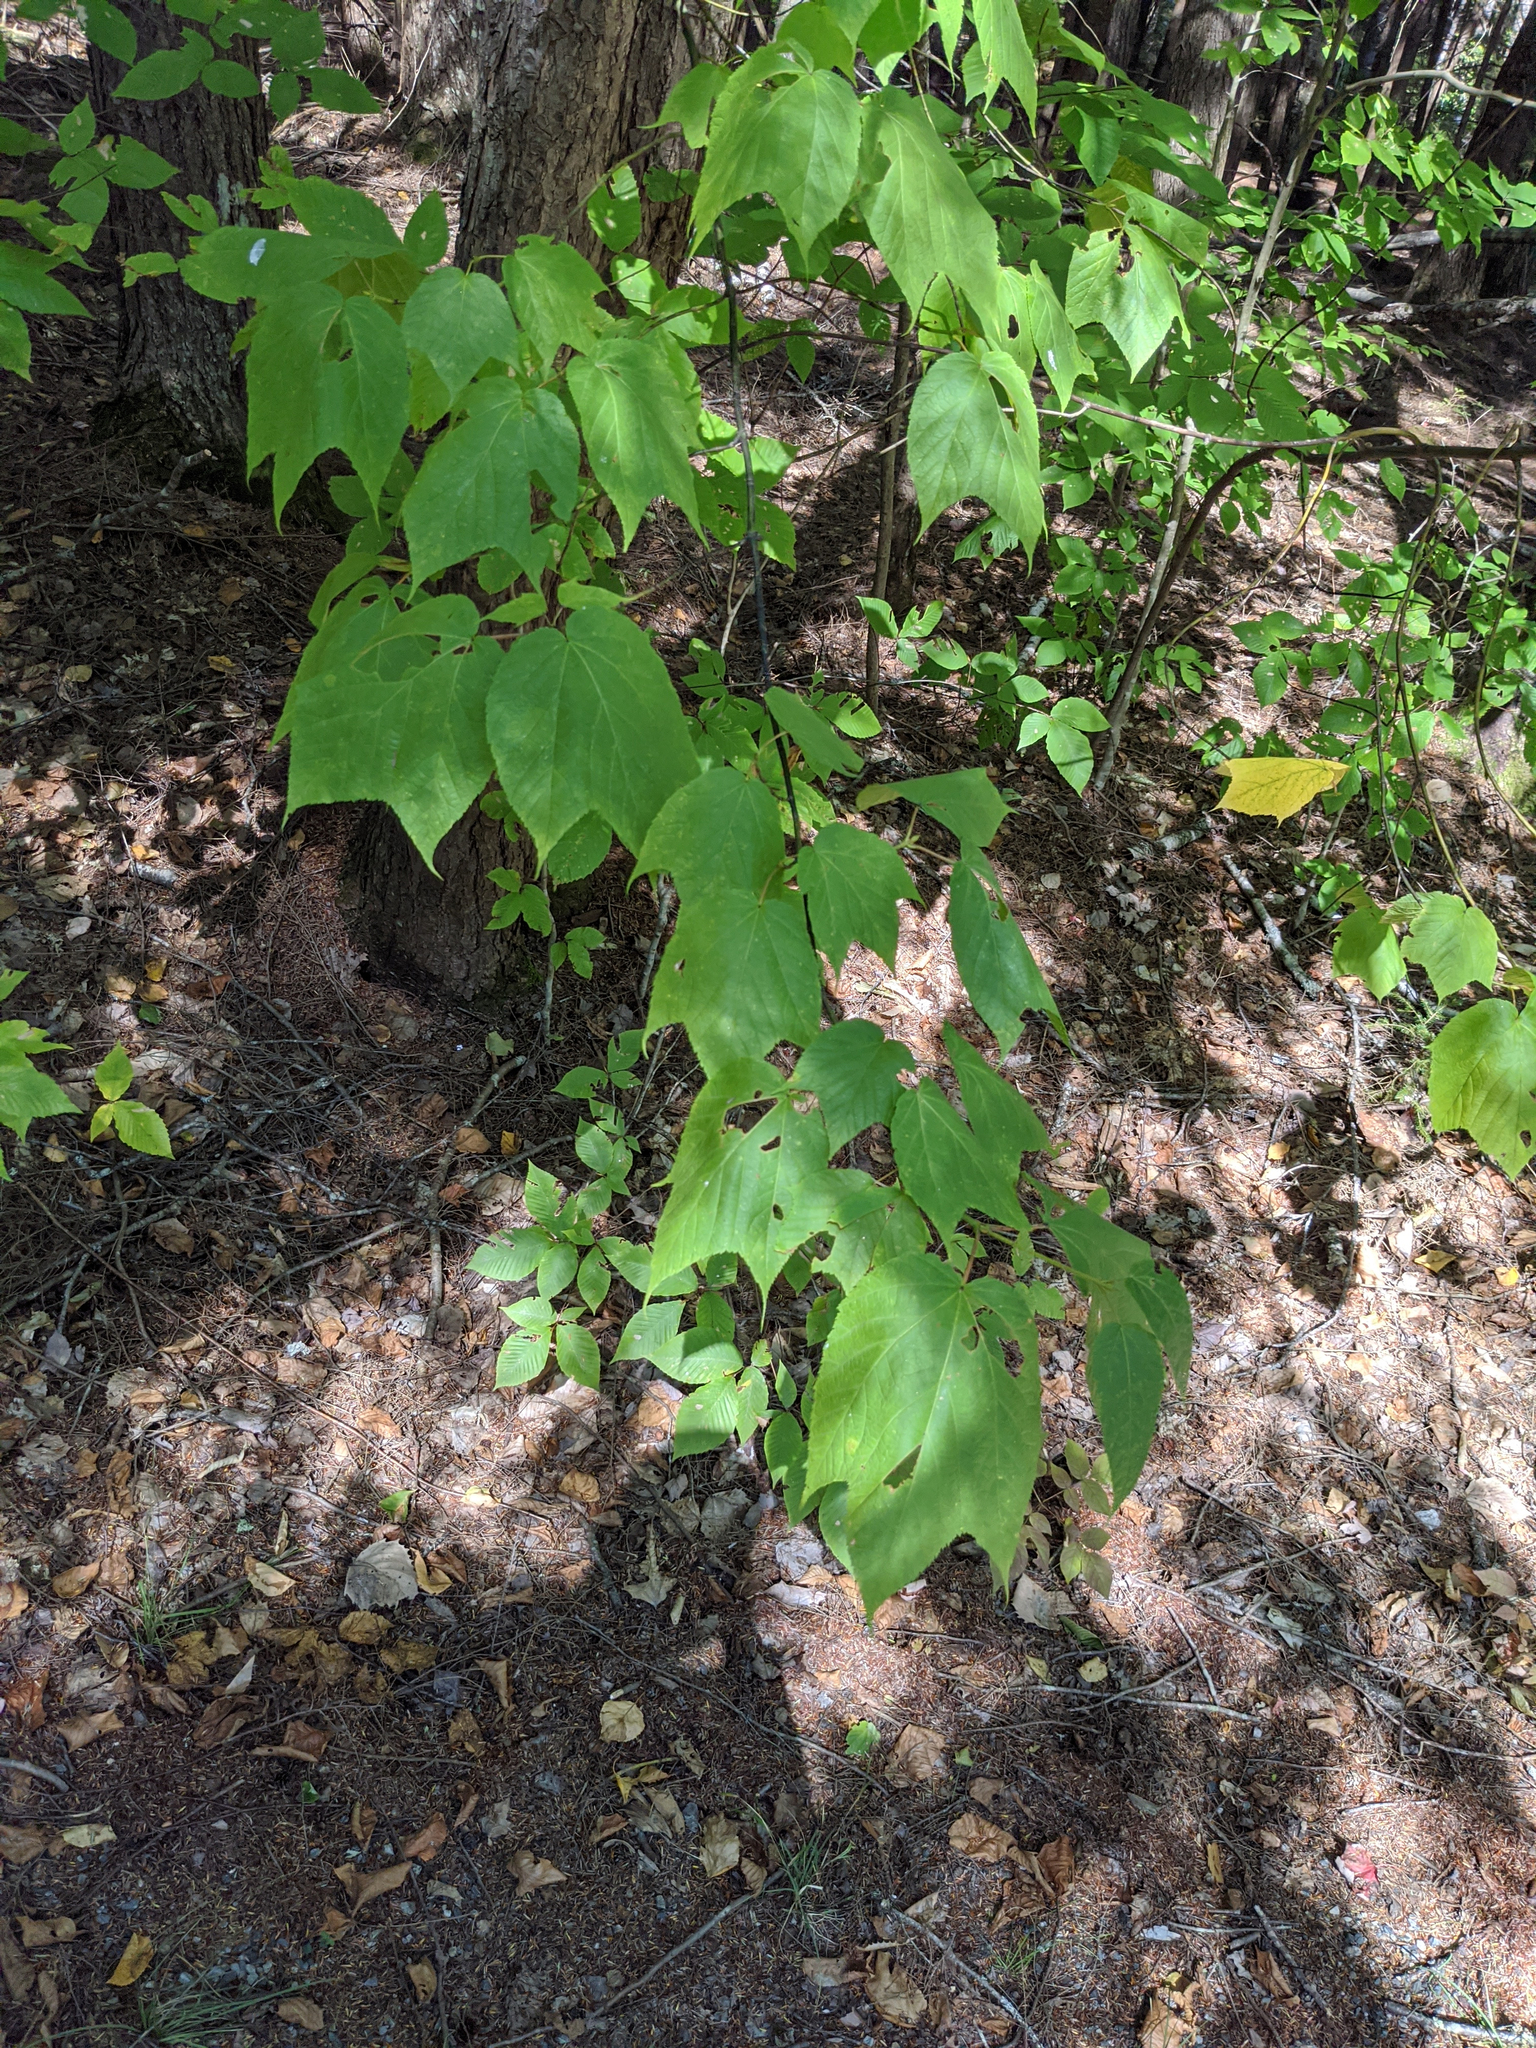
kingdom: Plantae
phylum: Tracheophyta
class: Magnoliopsida
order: Sapindales
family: Sapindaceae
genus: Acer
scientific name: Acer pensylvanicum
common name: Moosewood
